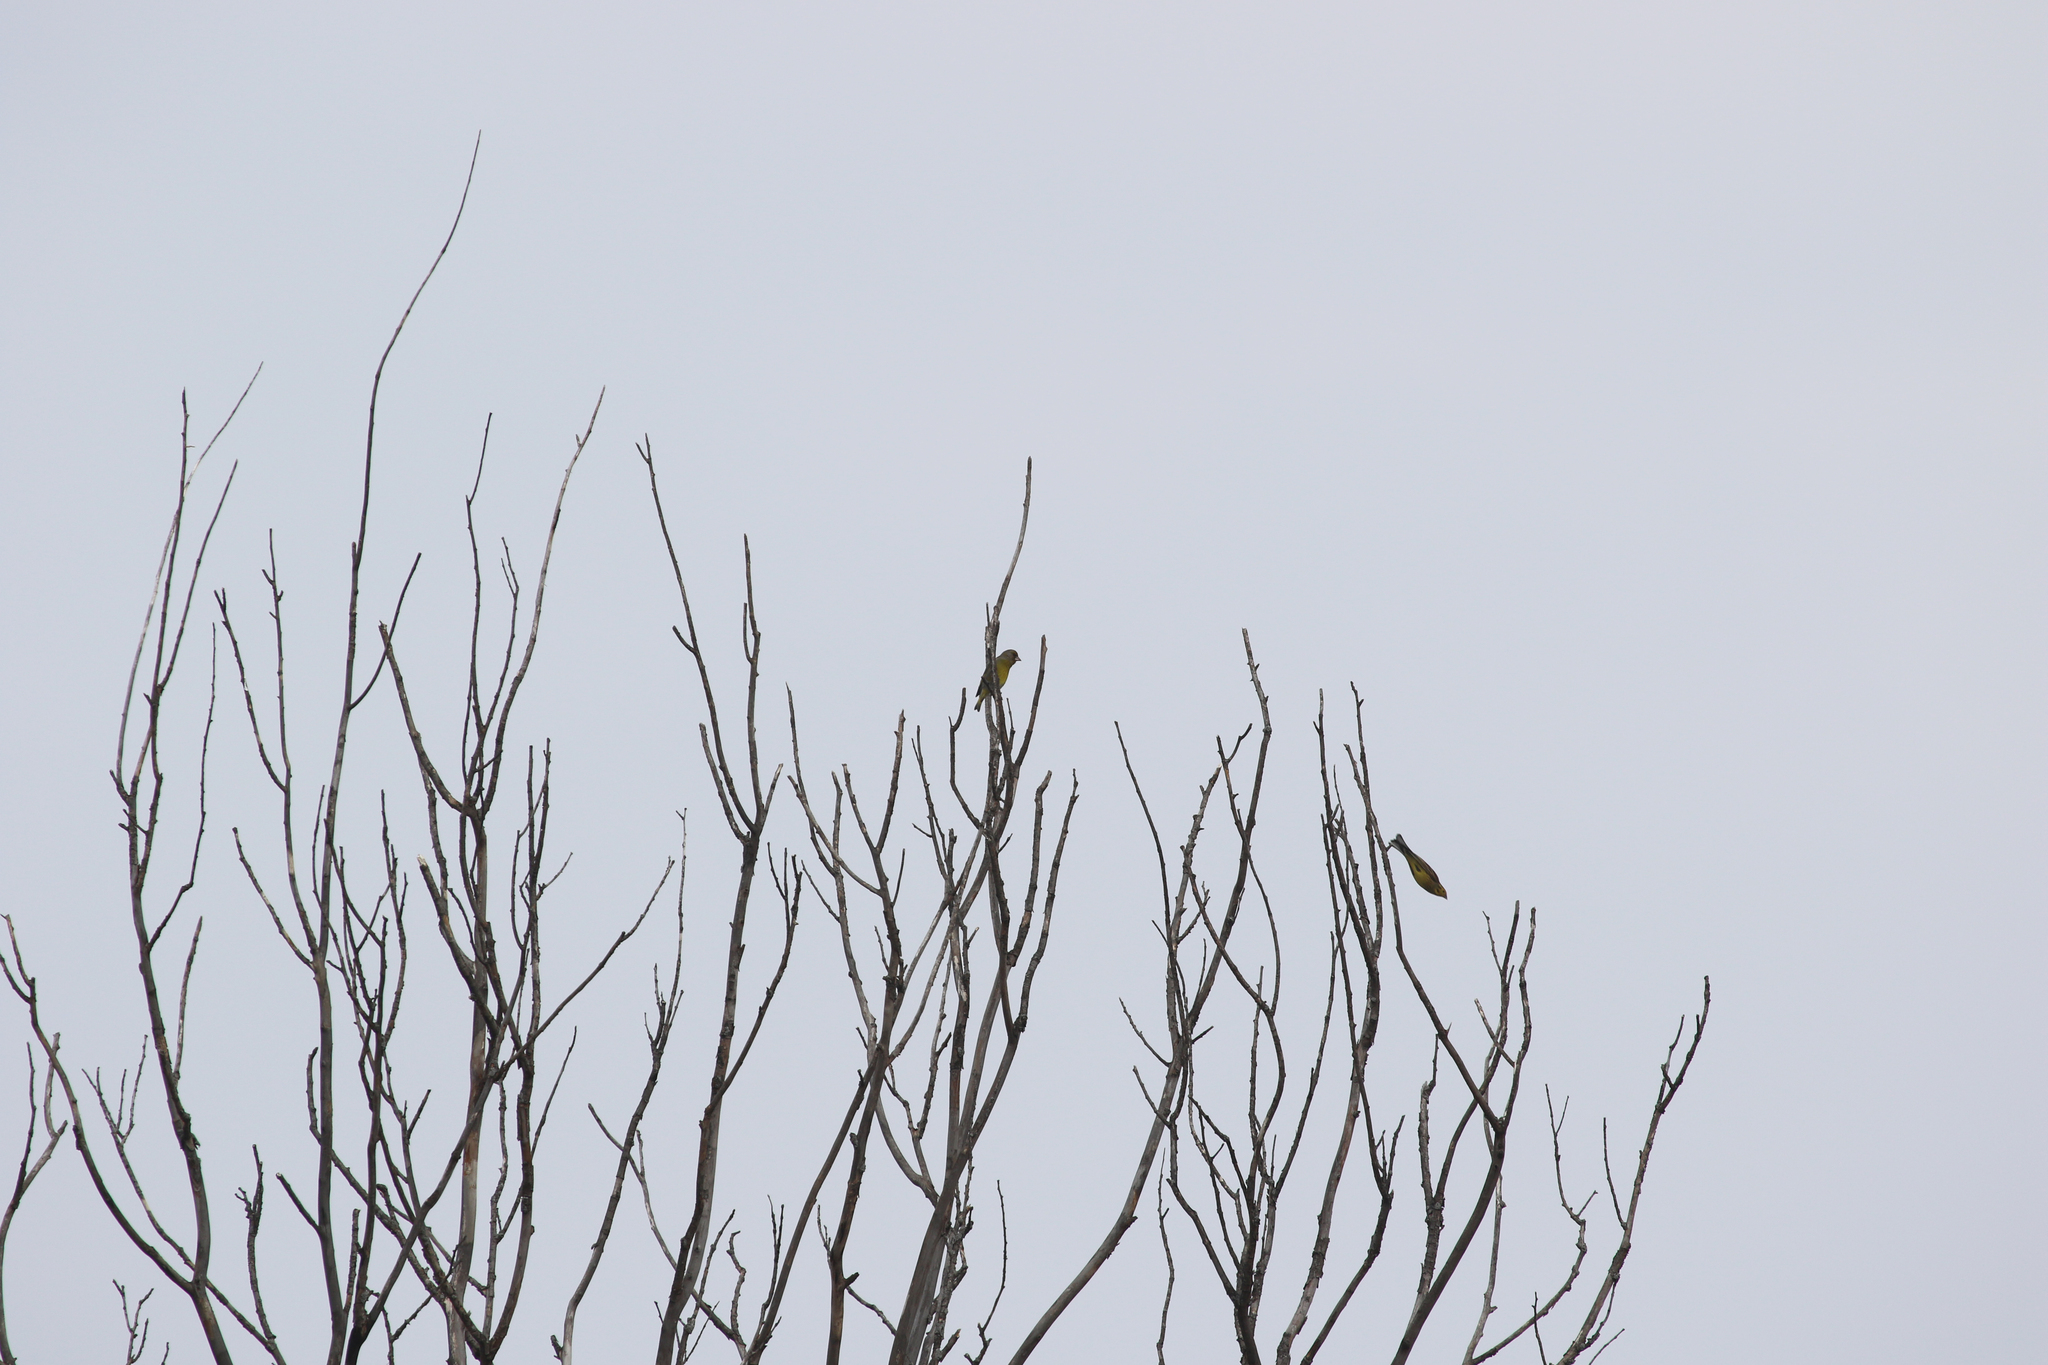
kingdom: Plantae
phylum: Tracheophyta
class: Liliopsida
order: Poales
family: Poaceae
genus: Chloris
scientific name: Chloris chloris
